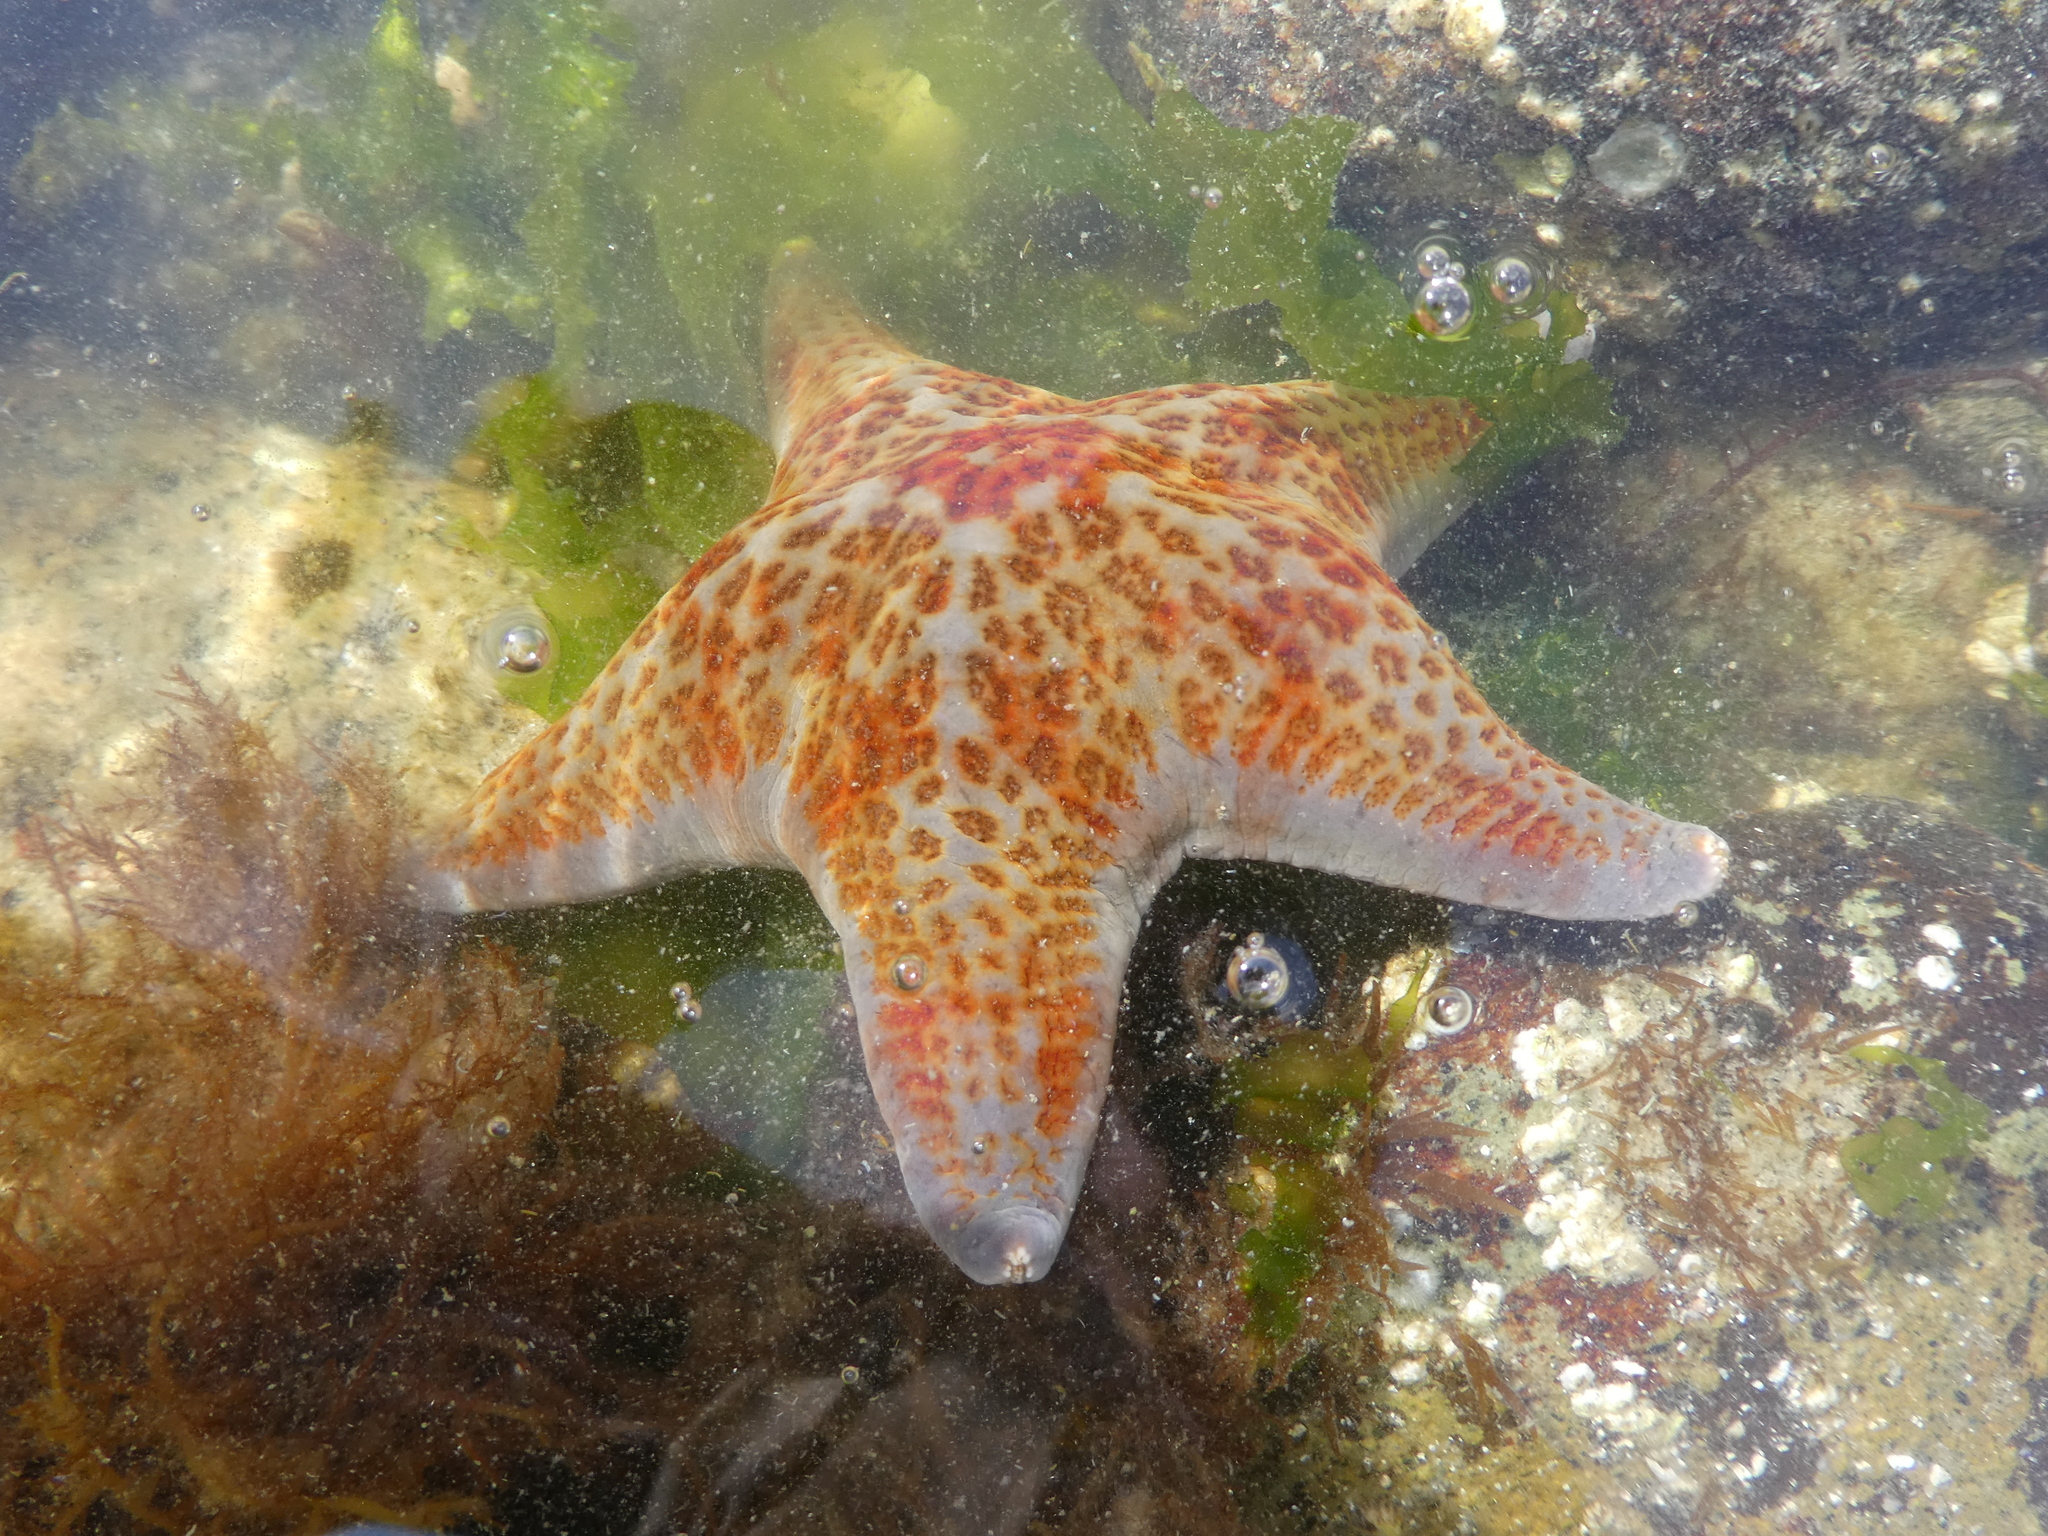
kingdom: Animalia
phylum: Echinodermata
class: Asteroidea
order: Valvatida
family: Asteropseidae
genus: Dermasterias
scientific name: Dermasterias imbricata
